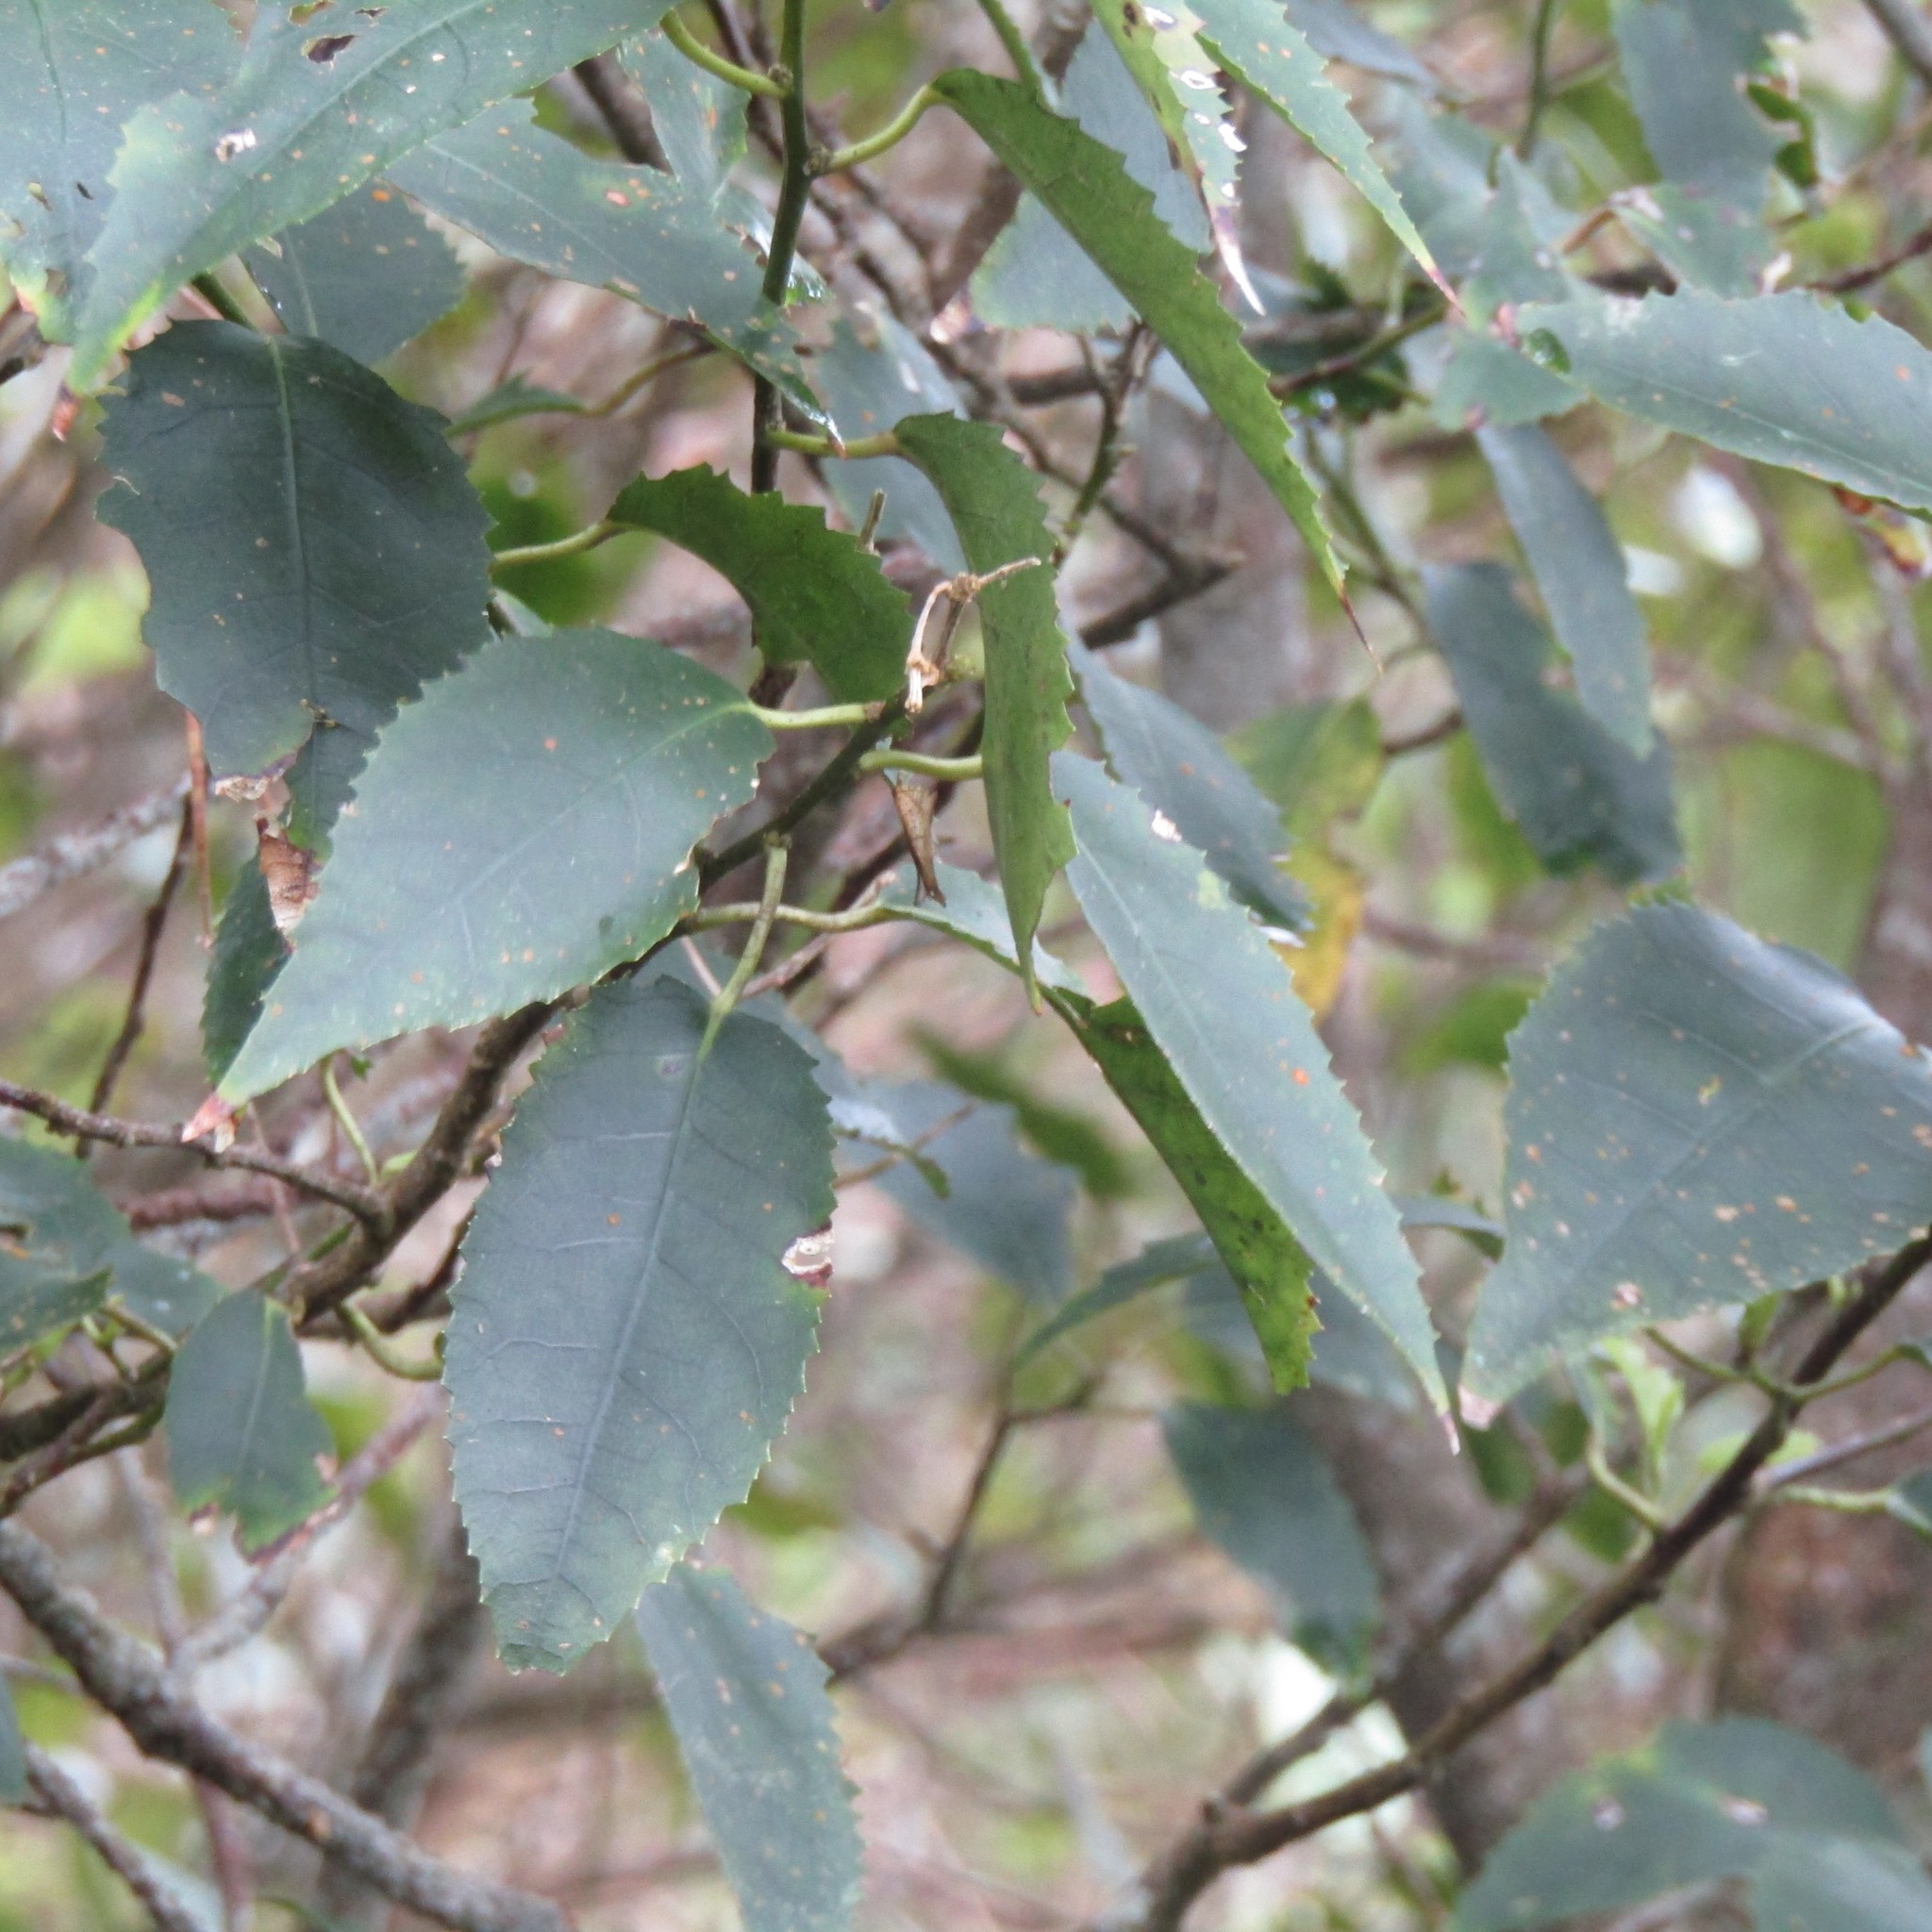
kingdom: Plantae
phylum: Tracheophyta
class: Magnoliopsida
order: Malvales
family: Malvaceae
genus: Hoheria
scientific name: Hoheria populnea
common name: Lacebark
